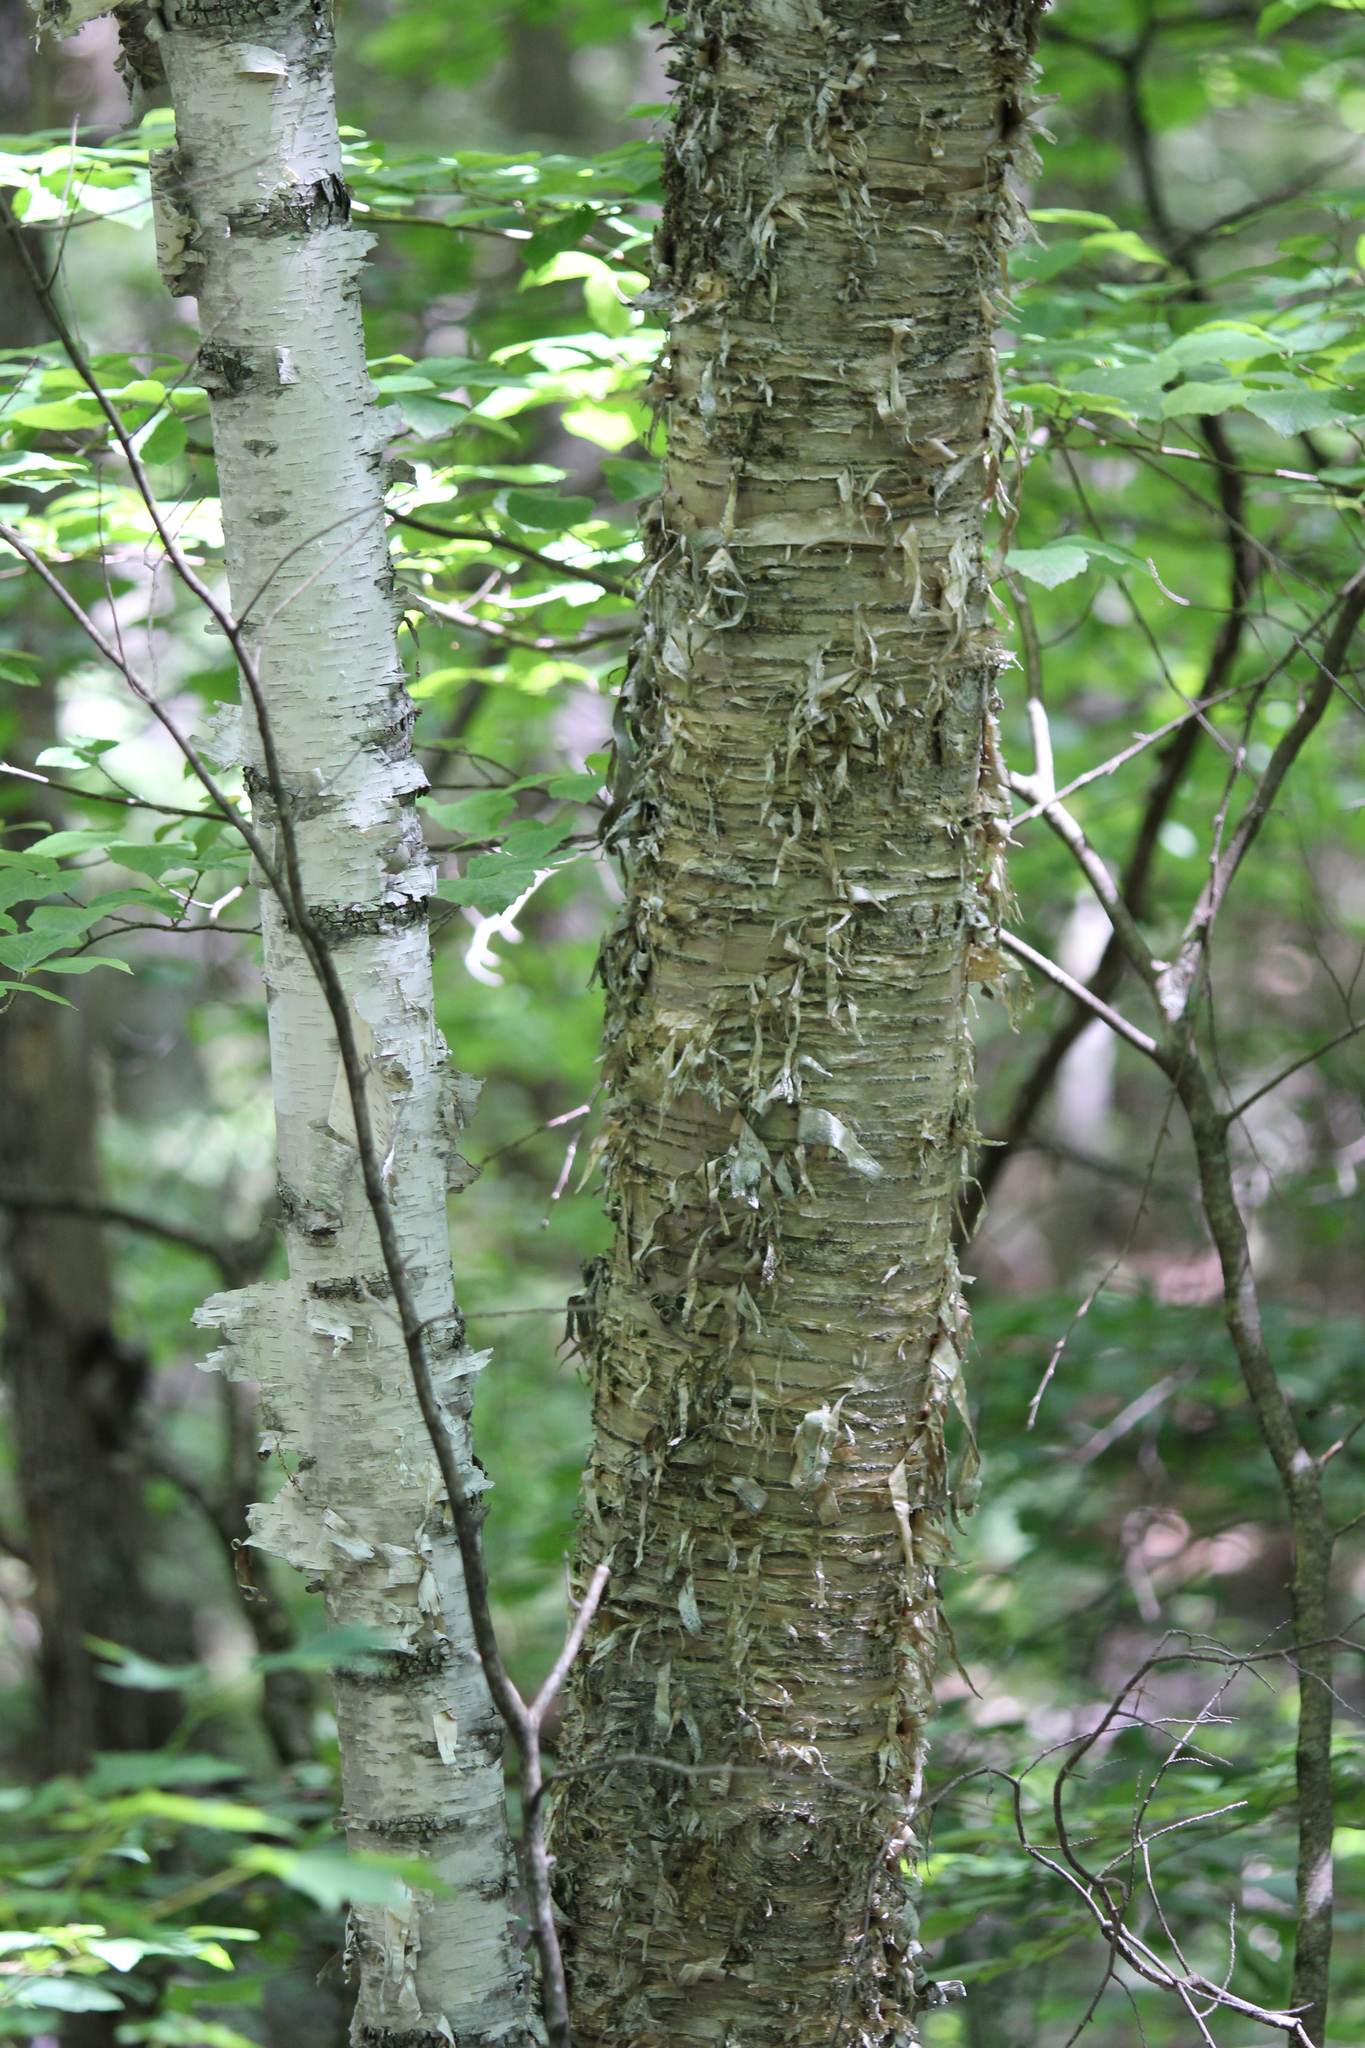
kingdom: Plantae
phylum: Tracheophyta
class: Magnoliopsida
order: Fagales
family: Betulaceae
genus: Betula
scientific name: Betula papyrifera
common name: Paper birch
